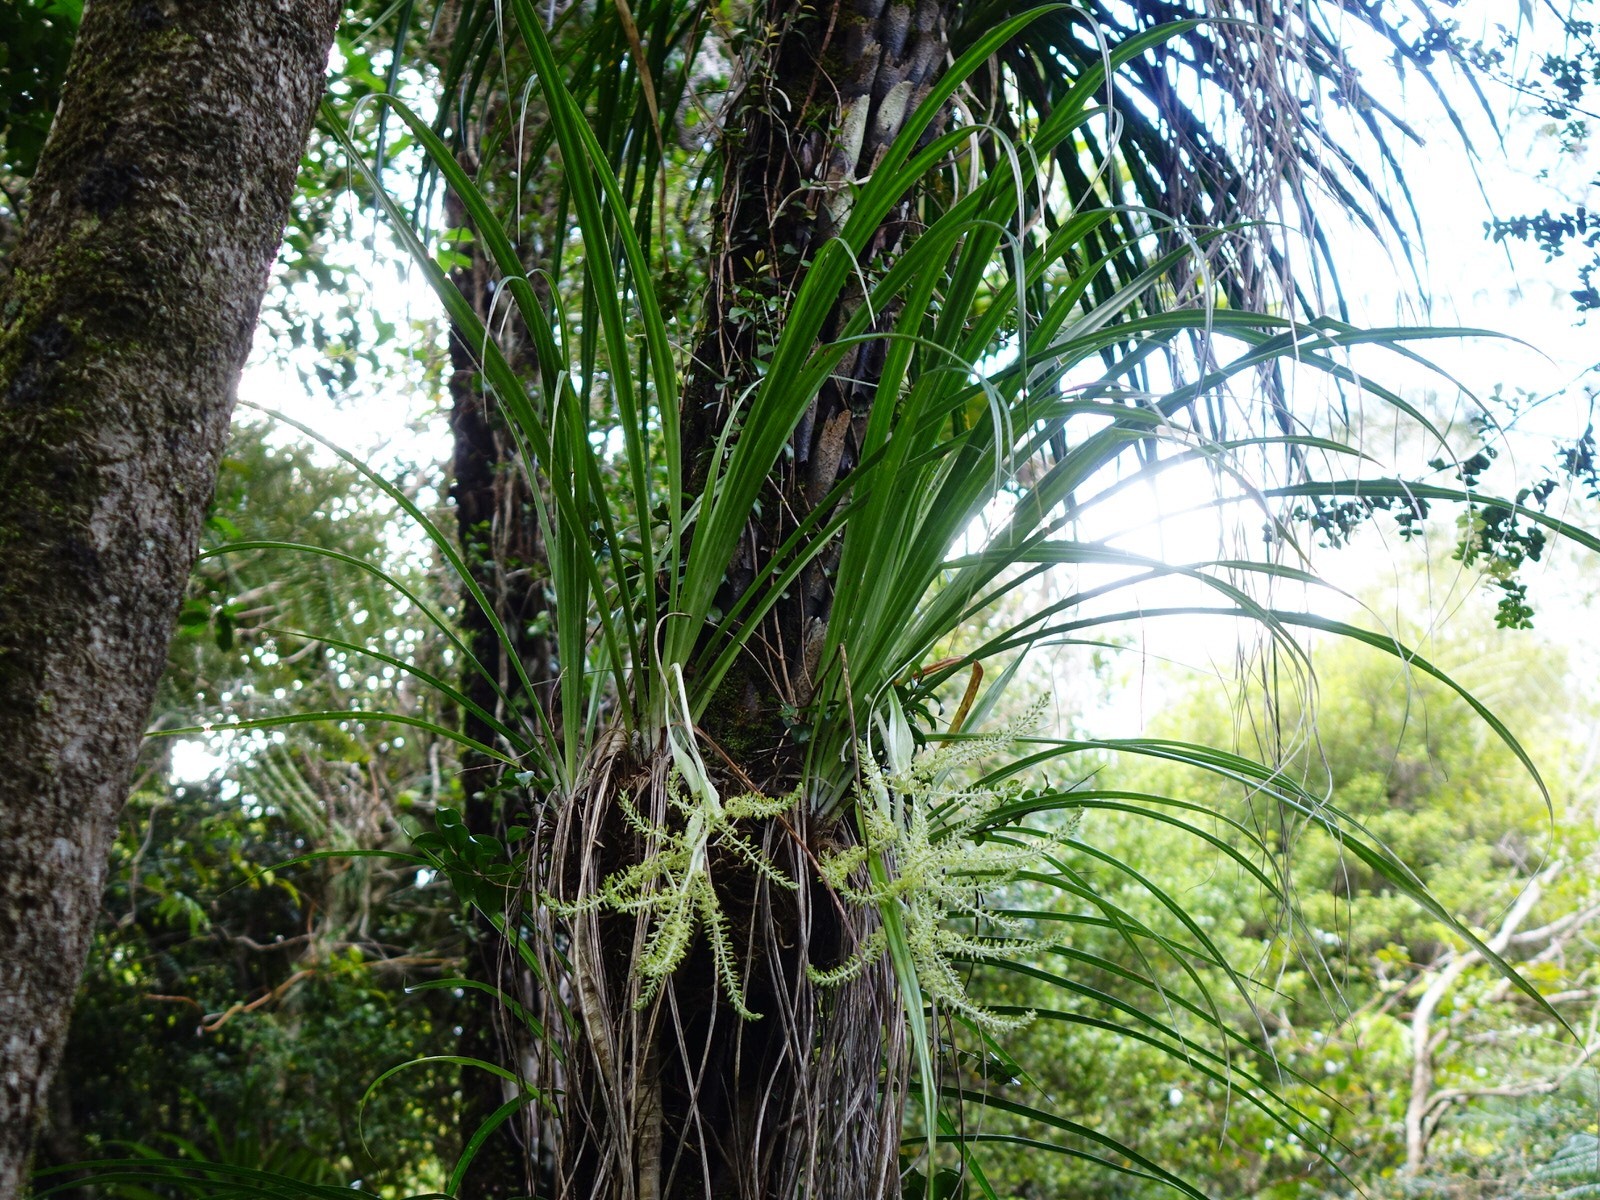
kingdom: Plantae
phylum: Tracheophyta
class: Liliopsida
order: Asparagales
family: Asteliaceae
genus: Astelia
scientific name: Astelia solandri
